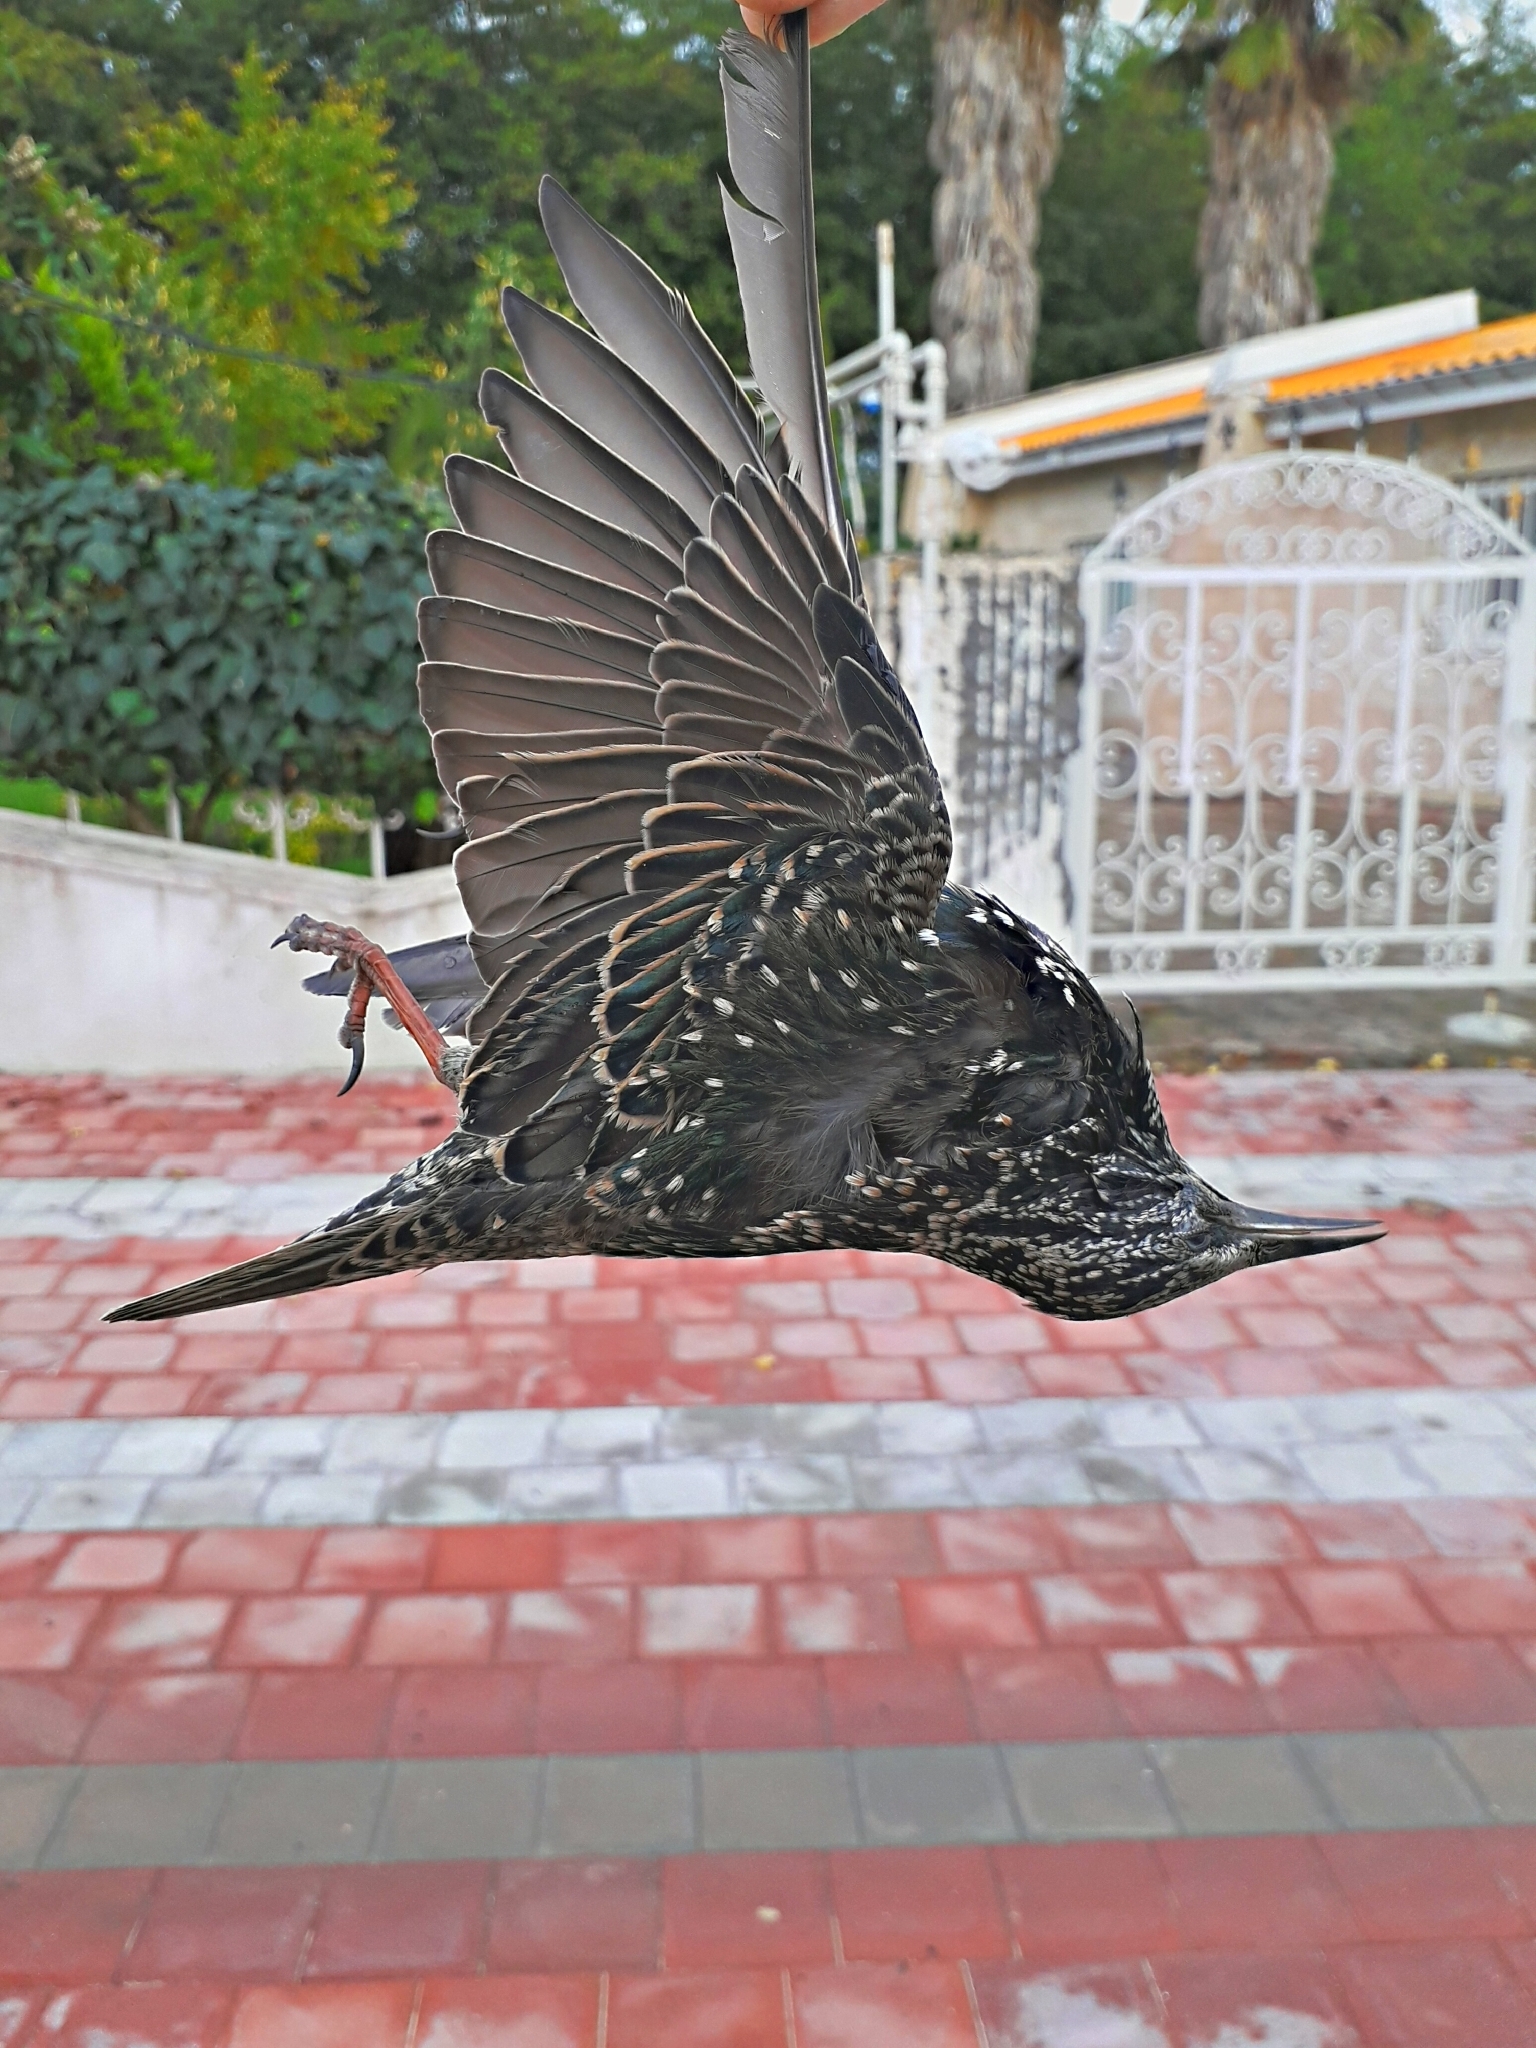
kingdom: Animalia
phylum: Chordata
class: Aves
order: Passeriformes
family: Sturnidae
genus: Sturnus
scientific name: Sturnus vulgaris
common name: Common starling
